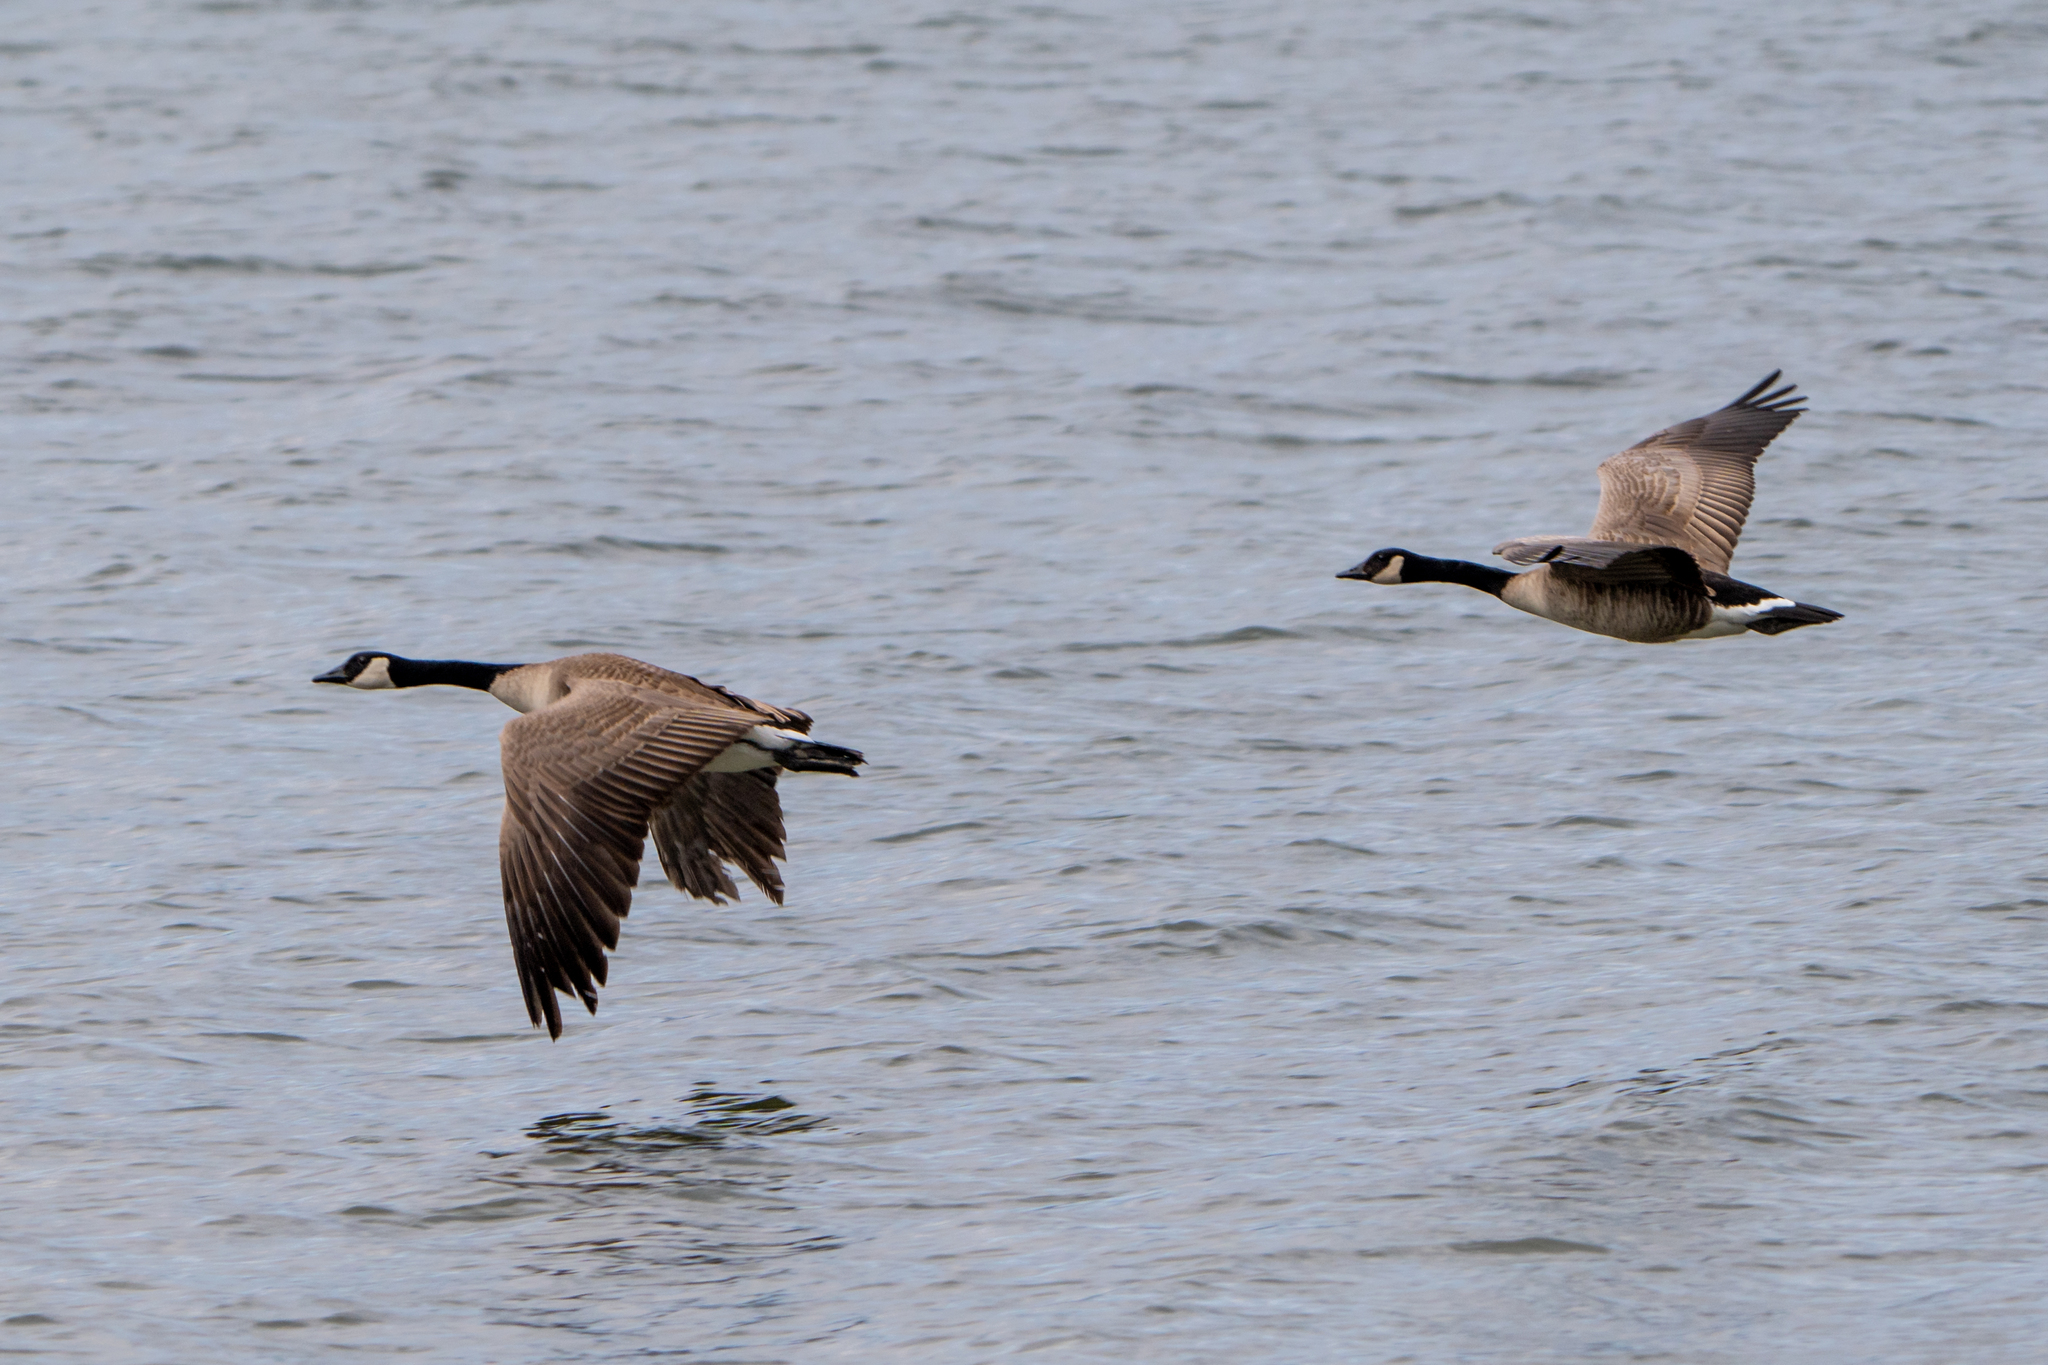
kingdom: Animalia
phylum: Chordata
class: Aves
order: Anseriformes
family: Anatidae
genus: Branta
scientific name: Branta canadensis
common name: Canada goose
